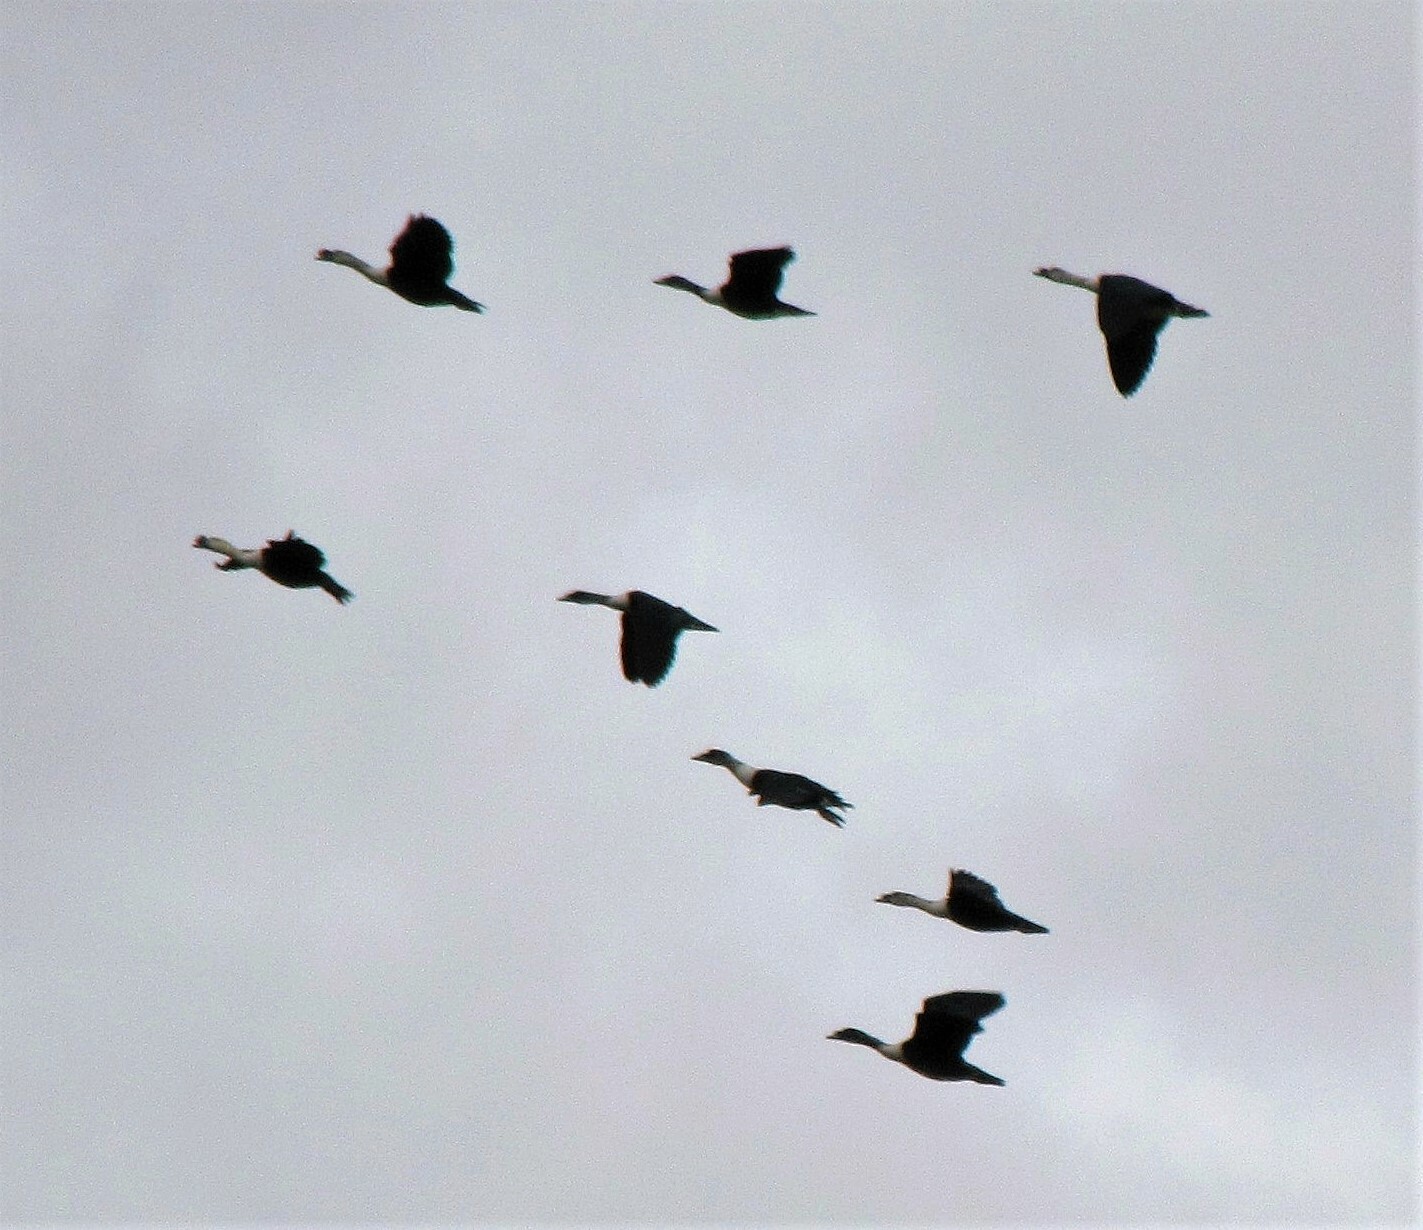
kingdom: Animalia
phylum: Chordata
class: Aves
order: Anseriformes
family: Anatidae
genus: Sarkidiornis
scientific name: Sarkidiornis sylvicola
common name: Comb duck
